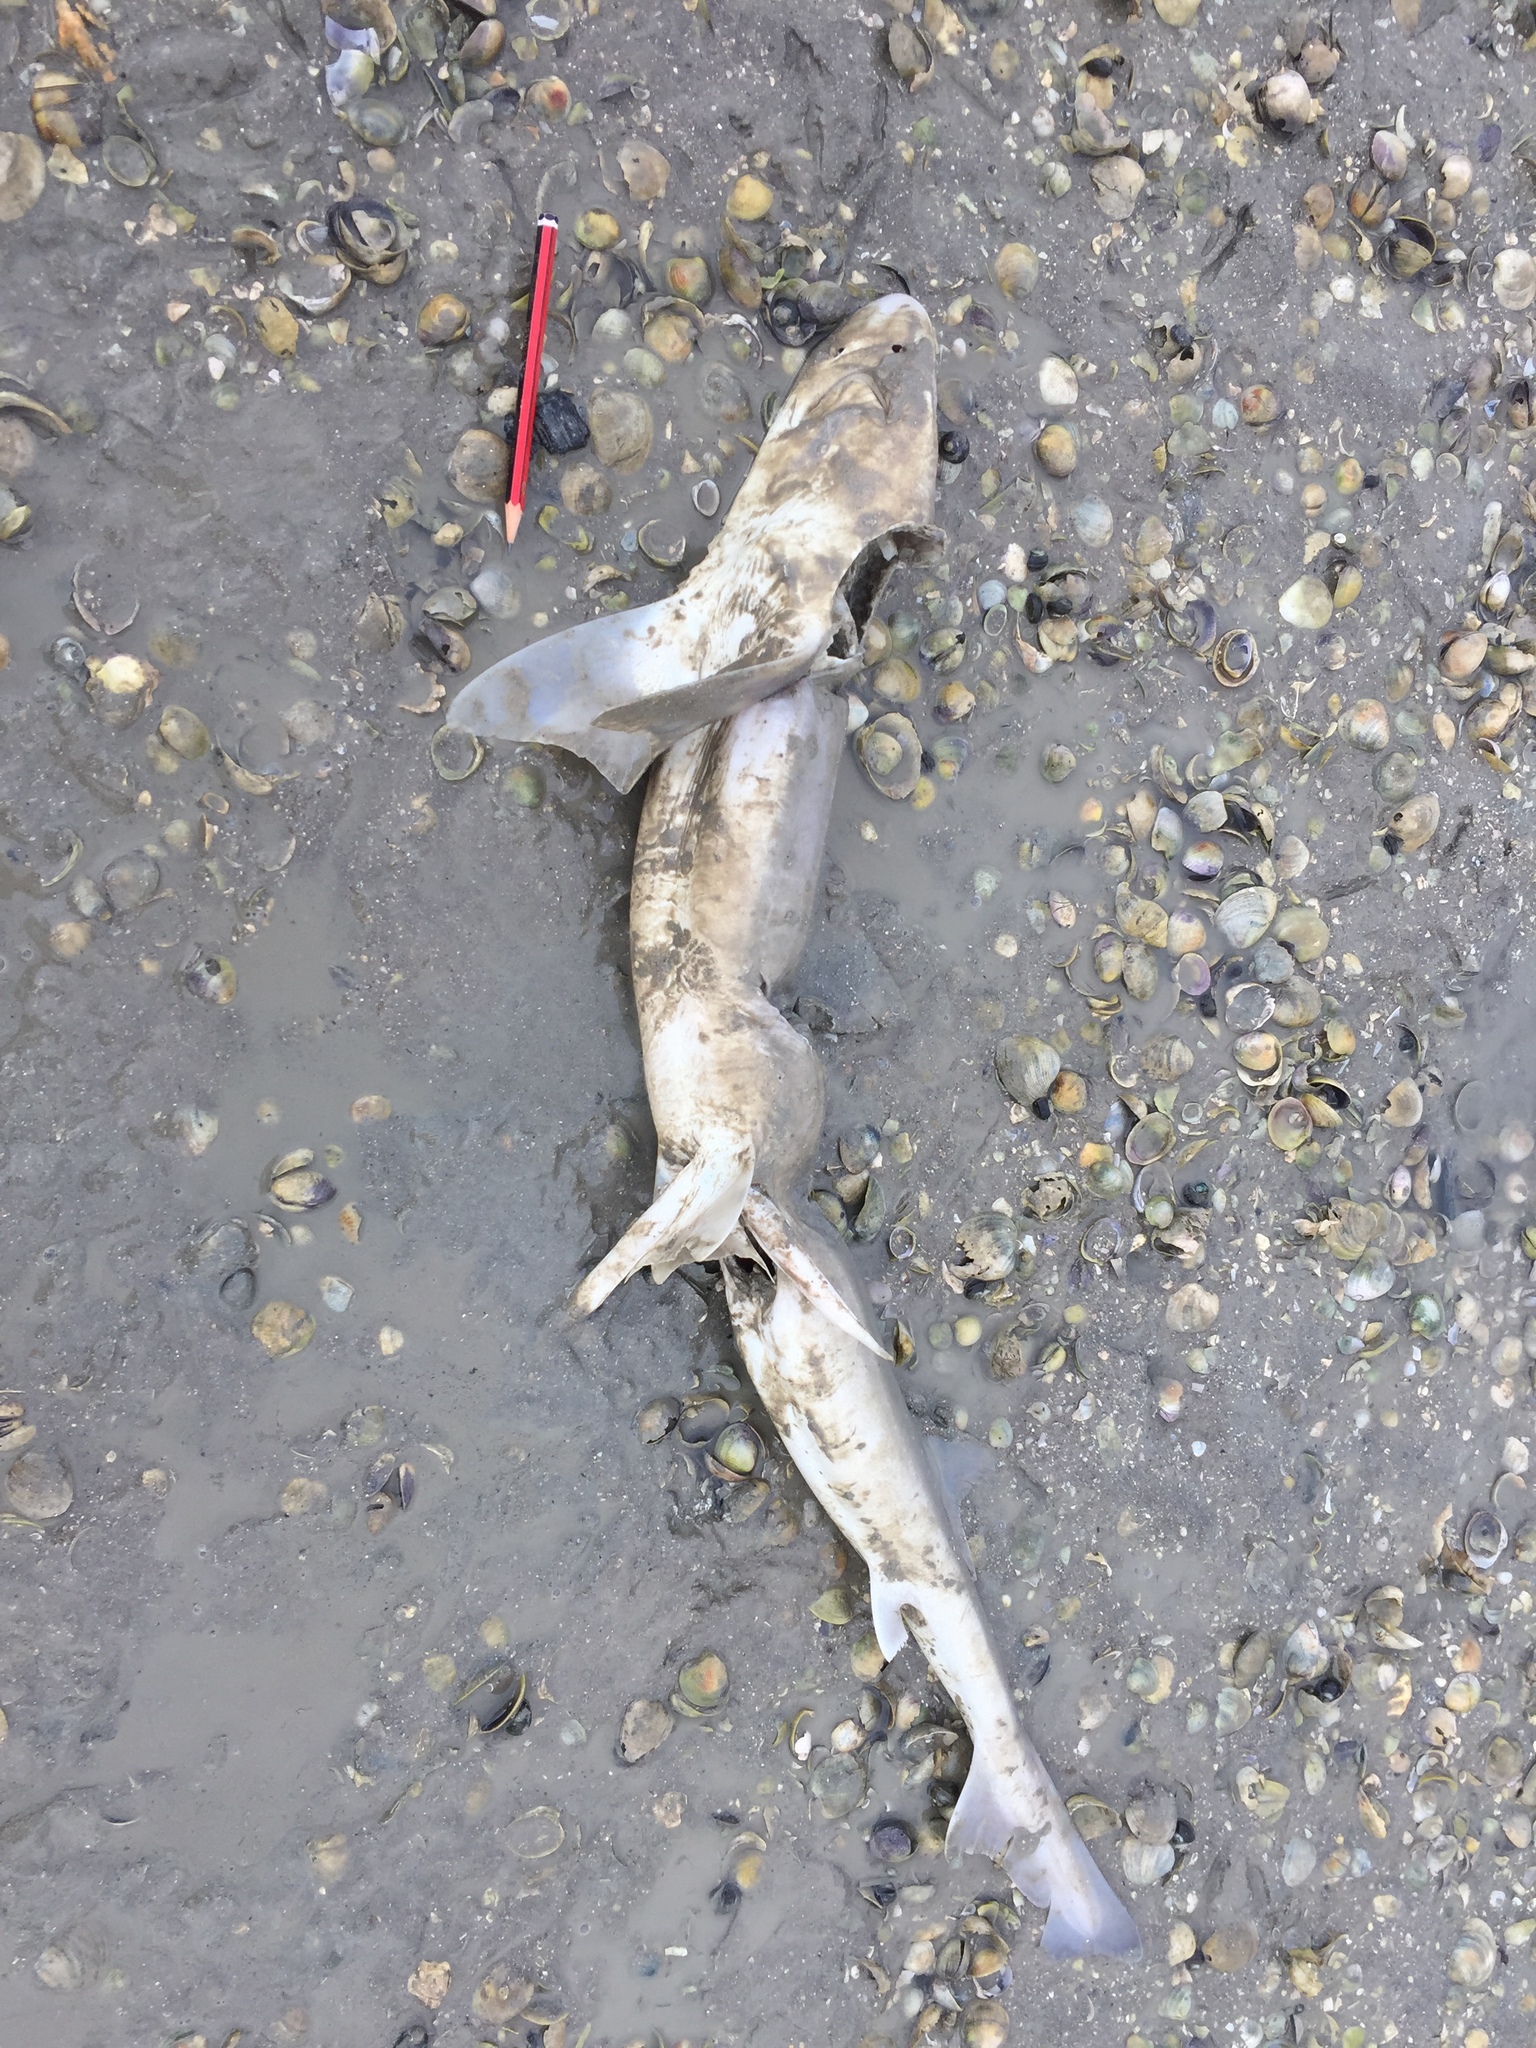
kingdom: Animalia
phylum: Chordata
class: Elasmobranchii
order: Carcharhiniformes
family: Triakidae
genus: Mustelus
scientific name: Mustelus lenticulatus
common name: Gummy shark
